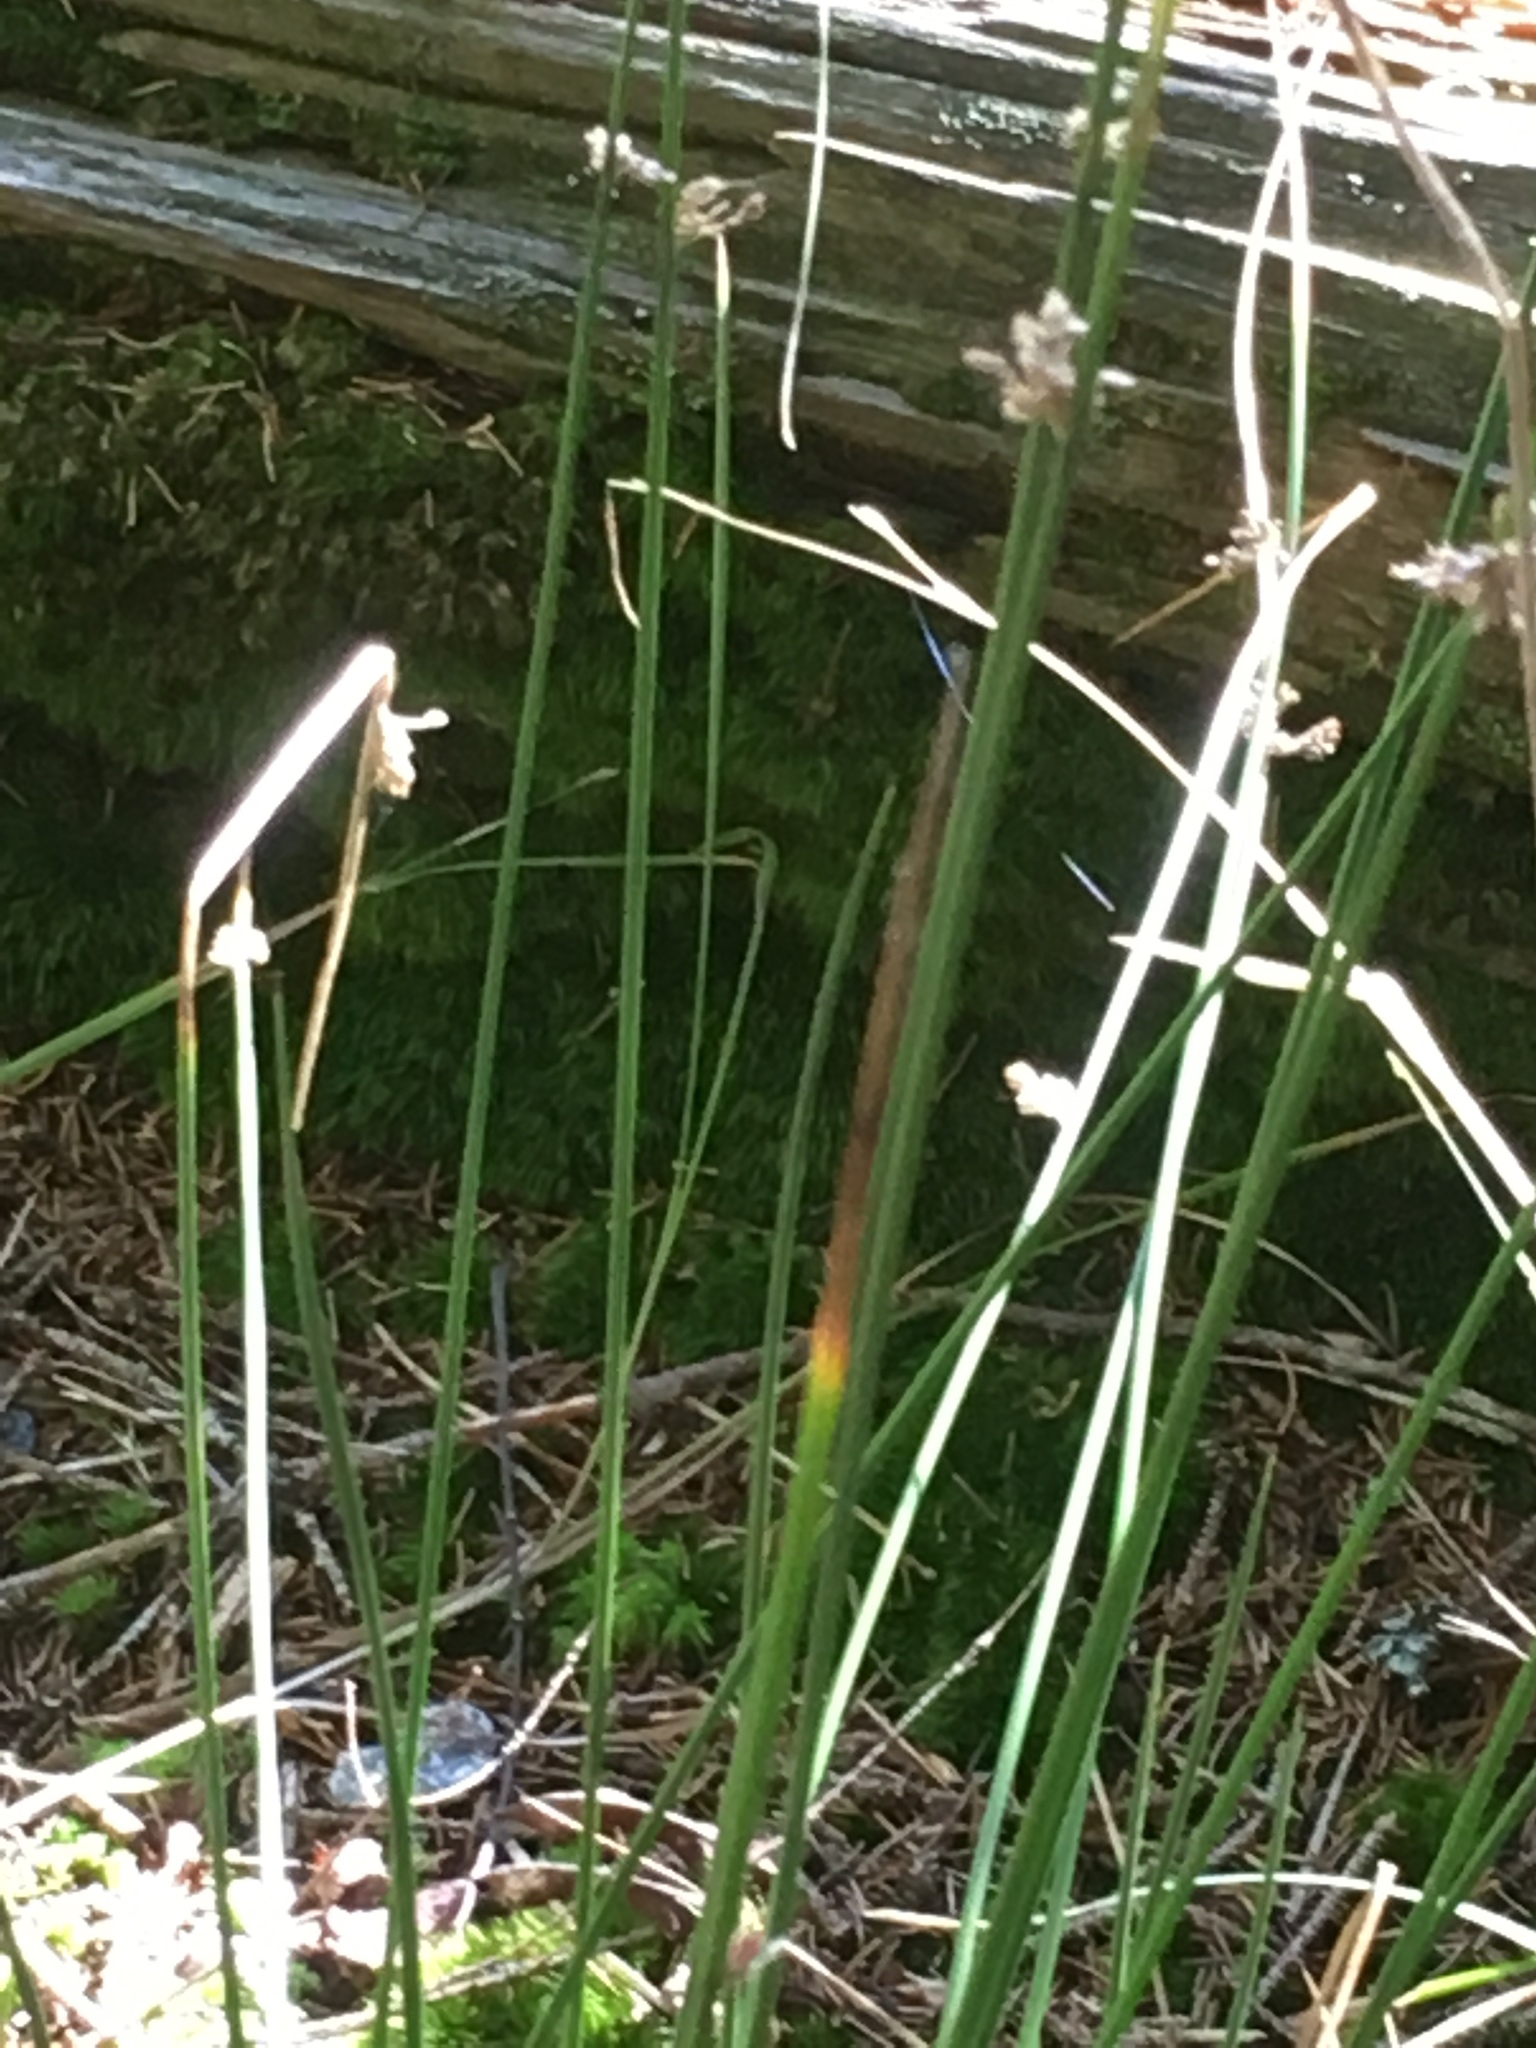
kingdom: Plantae
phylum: Tracheophyta
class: Liliopsida
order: Poales
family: Juncaceae
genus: Juncus
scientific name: Juncus effusus
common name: Soft rush
